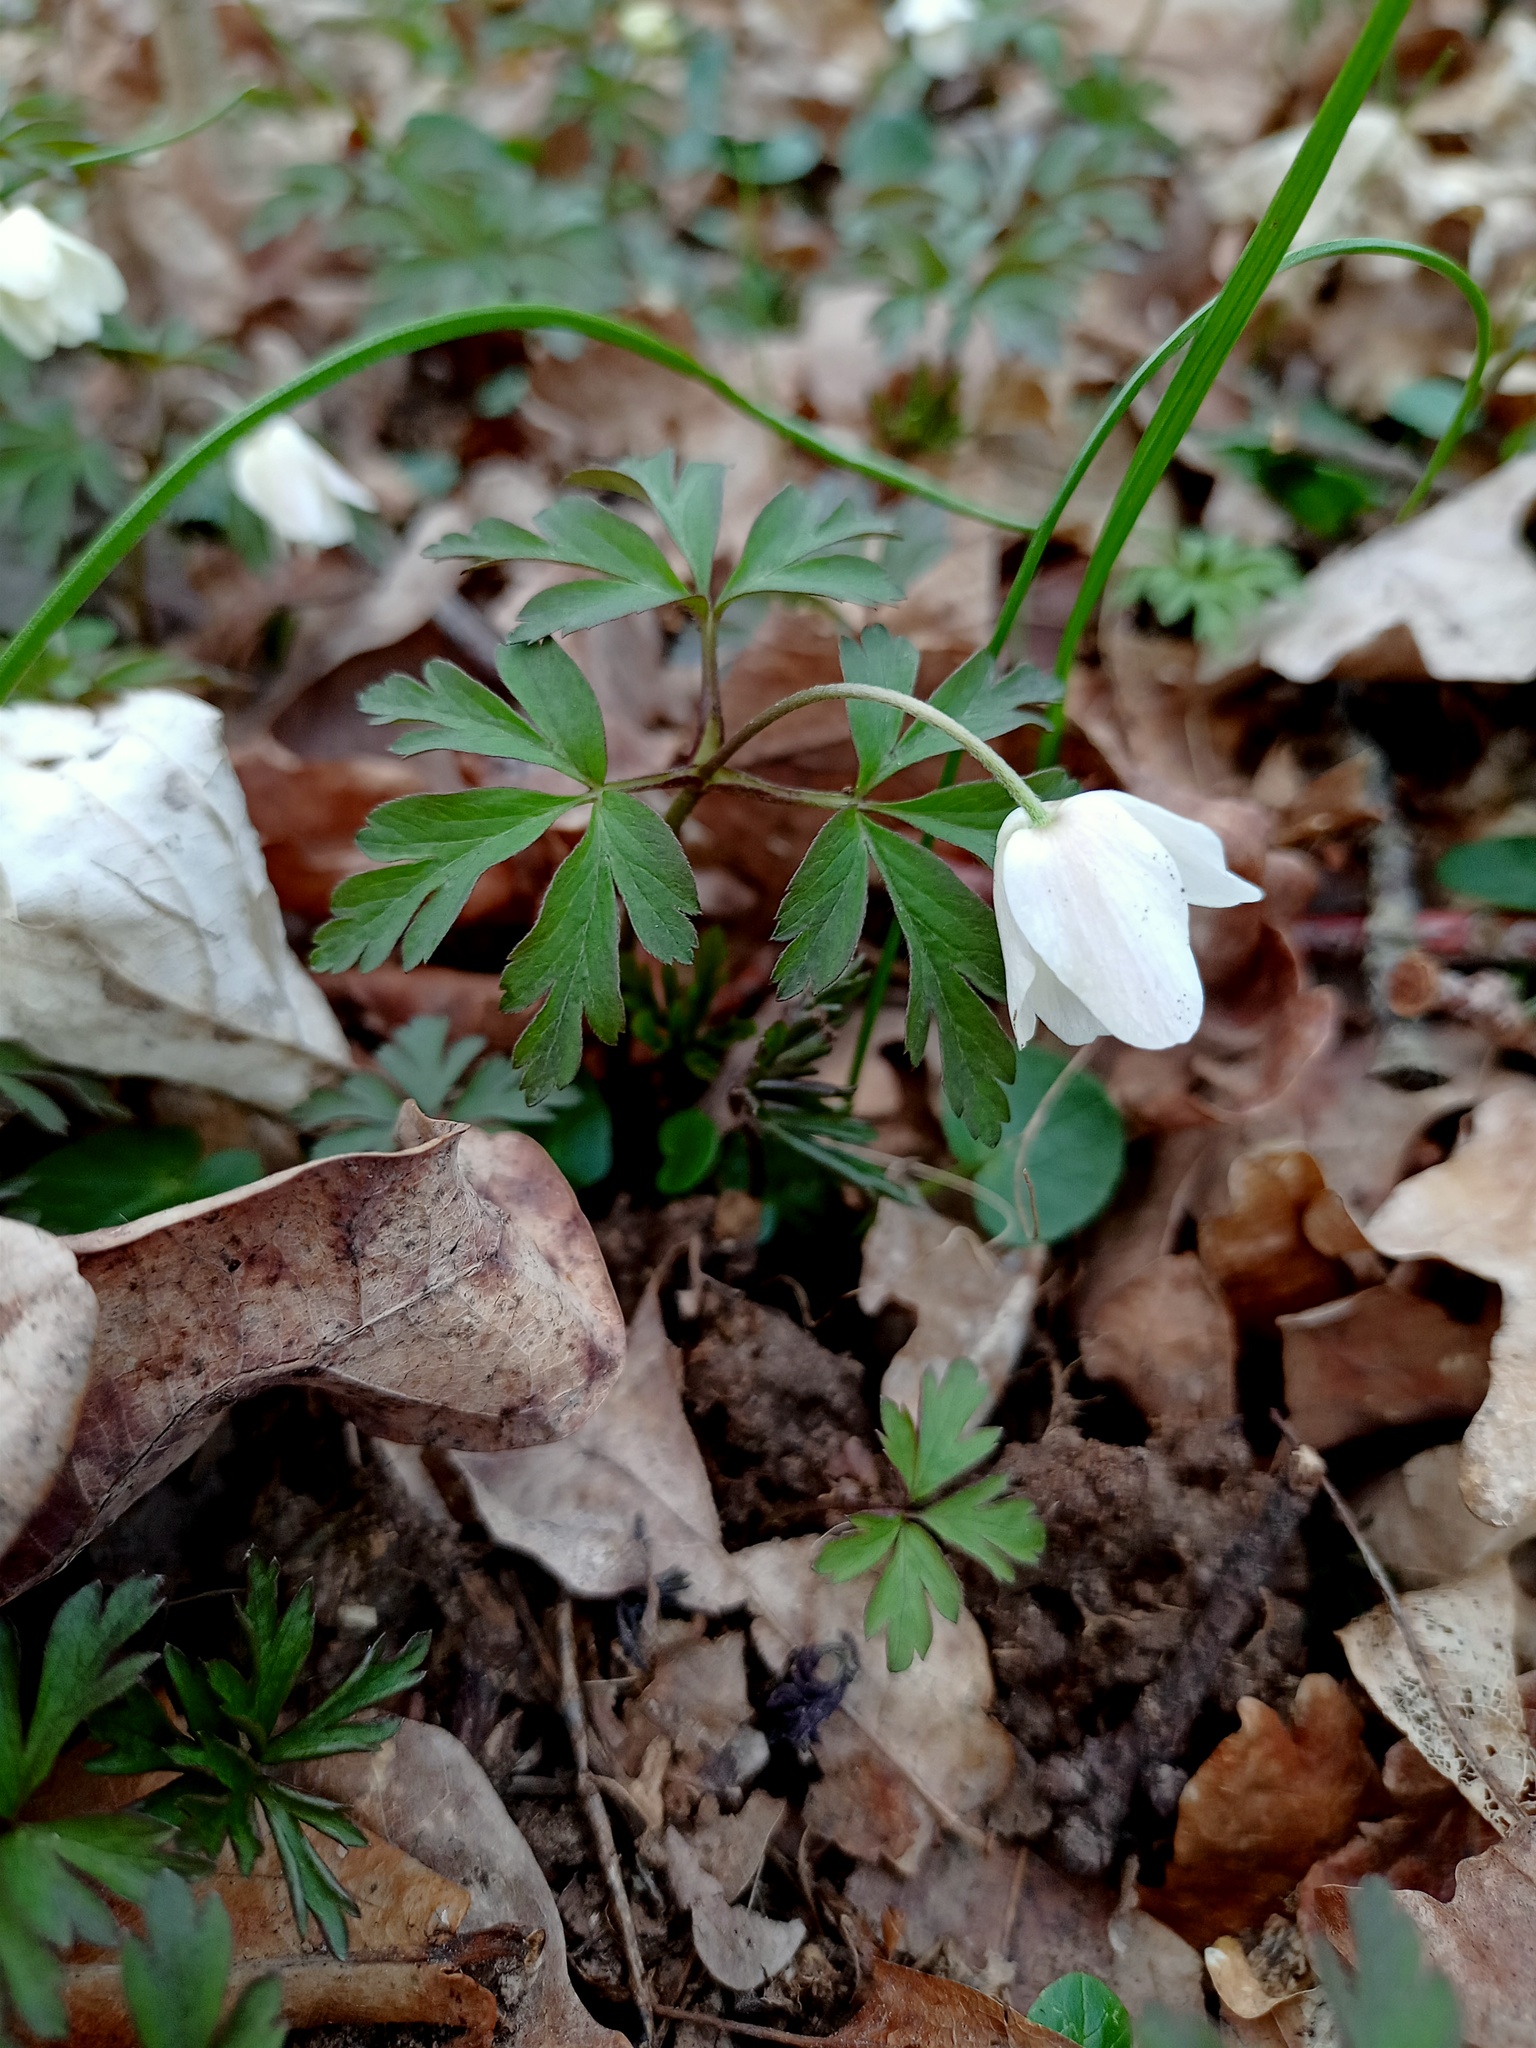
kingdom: Plantae
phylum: Tracheophyta
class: Magnoliopsida
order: Ranunculales
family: Ranunculaceae
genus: Anemone
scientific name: Anemone nemorosa
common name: Wood anemone
